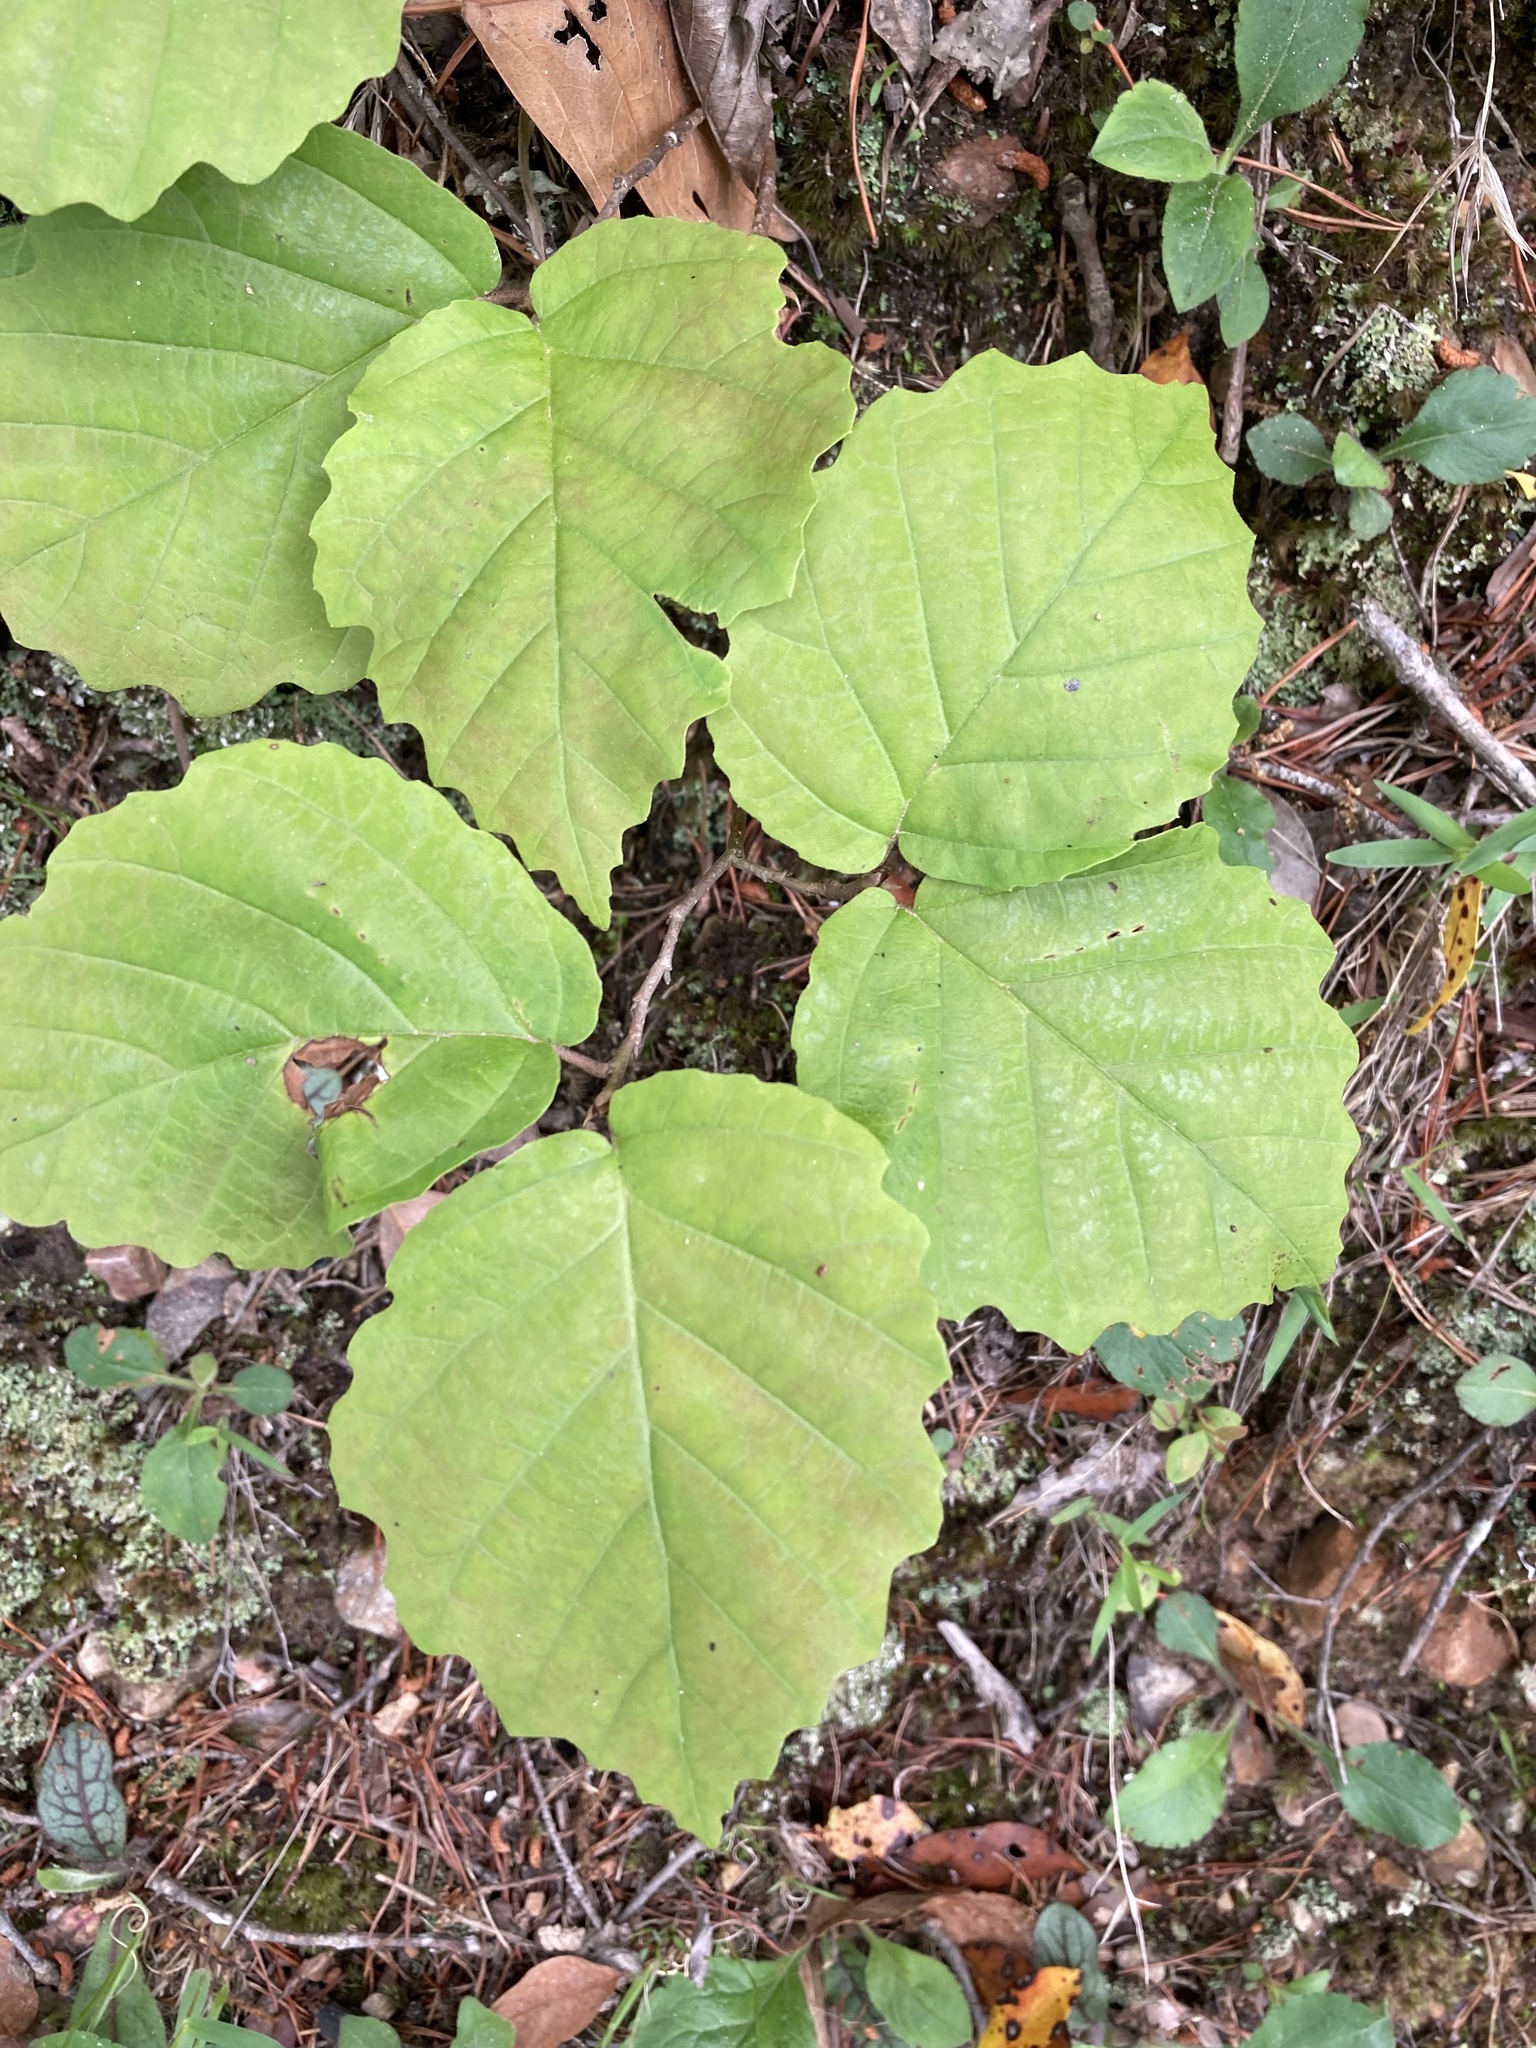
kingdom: Plantae
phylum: Tracheophyta
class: Magnoliopsida
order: Saxifragales
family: Hamamelidaceae
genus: Hamamelis
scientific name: Hamamelis virginiana
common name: Witch-hazel
